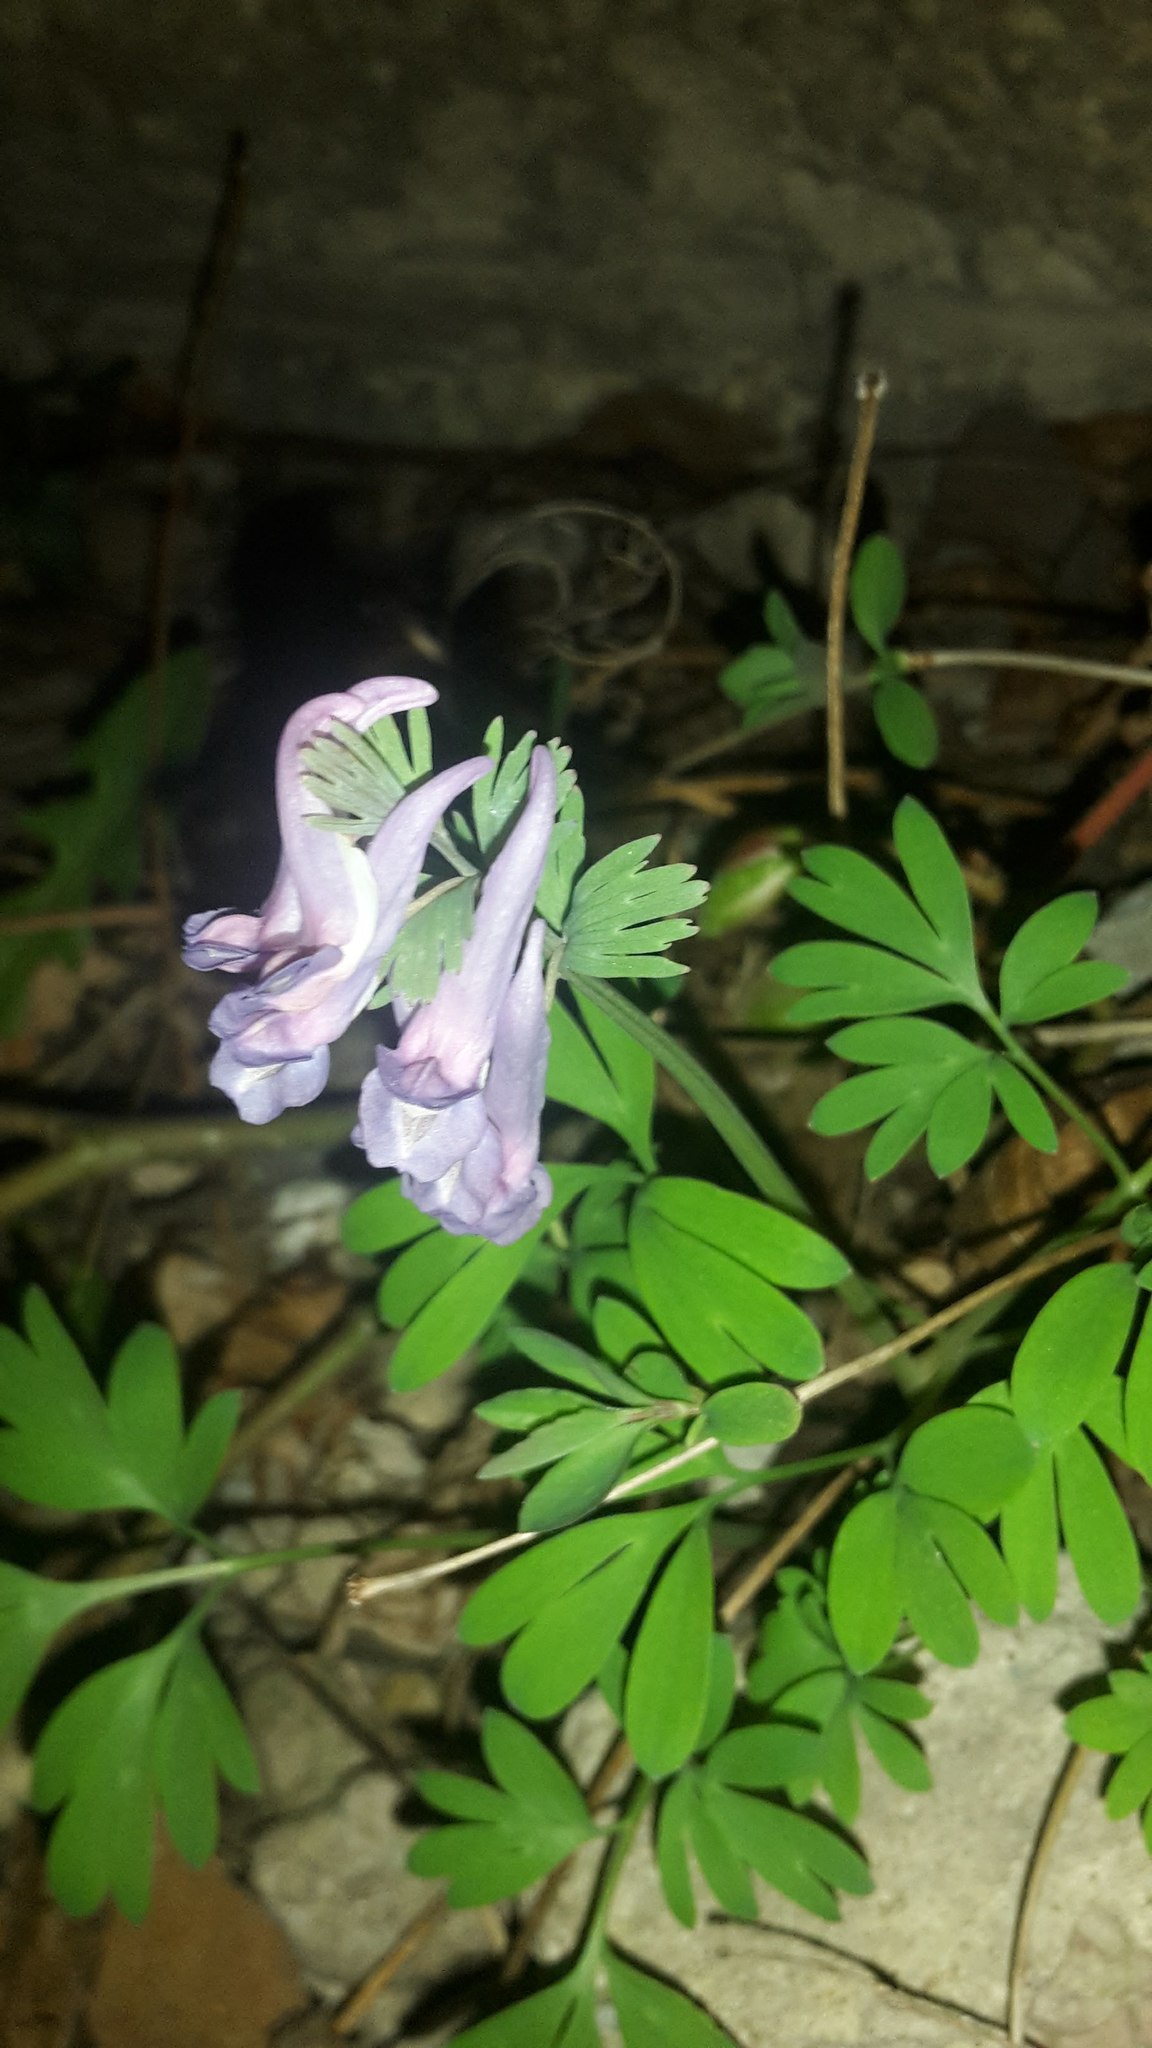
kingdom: Plantae
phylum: Tracheophyta
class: Magnoliopsida
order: Ranunculales
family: Papaveraceae
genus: Corydalis
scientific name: Corydalis solida
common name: Bird-in-a-bush
